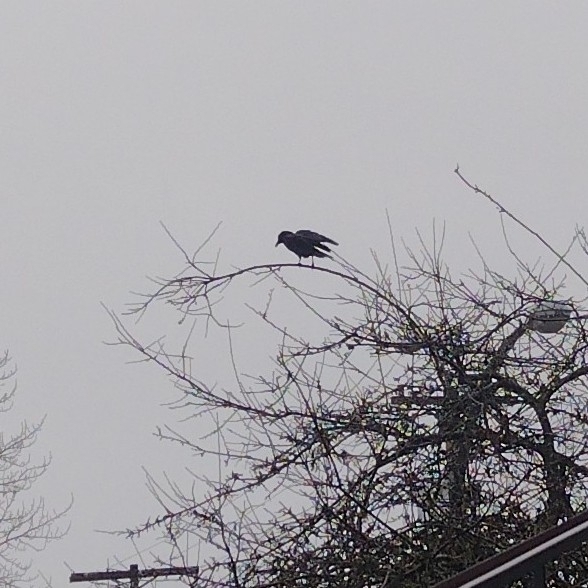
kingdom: Animalia
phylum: Chordata
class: Aves
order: Passeriformes
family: Corvidae
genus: Corvus
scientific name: Corvus brachyrhynchos
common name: American crow
